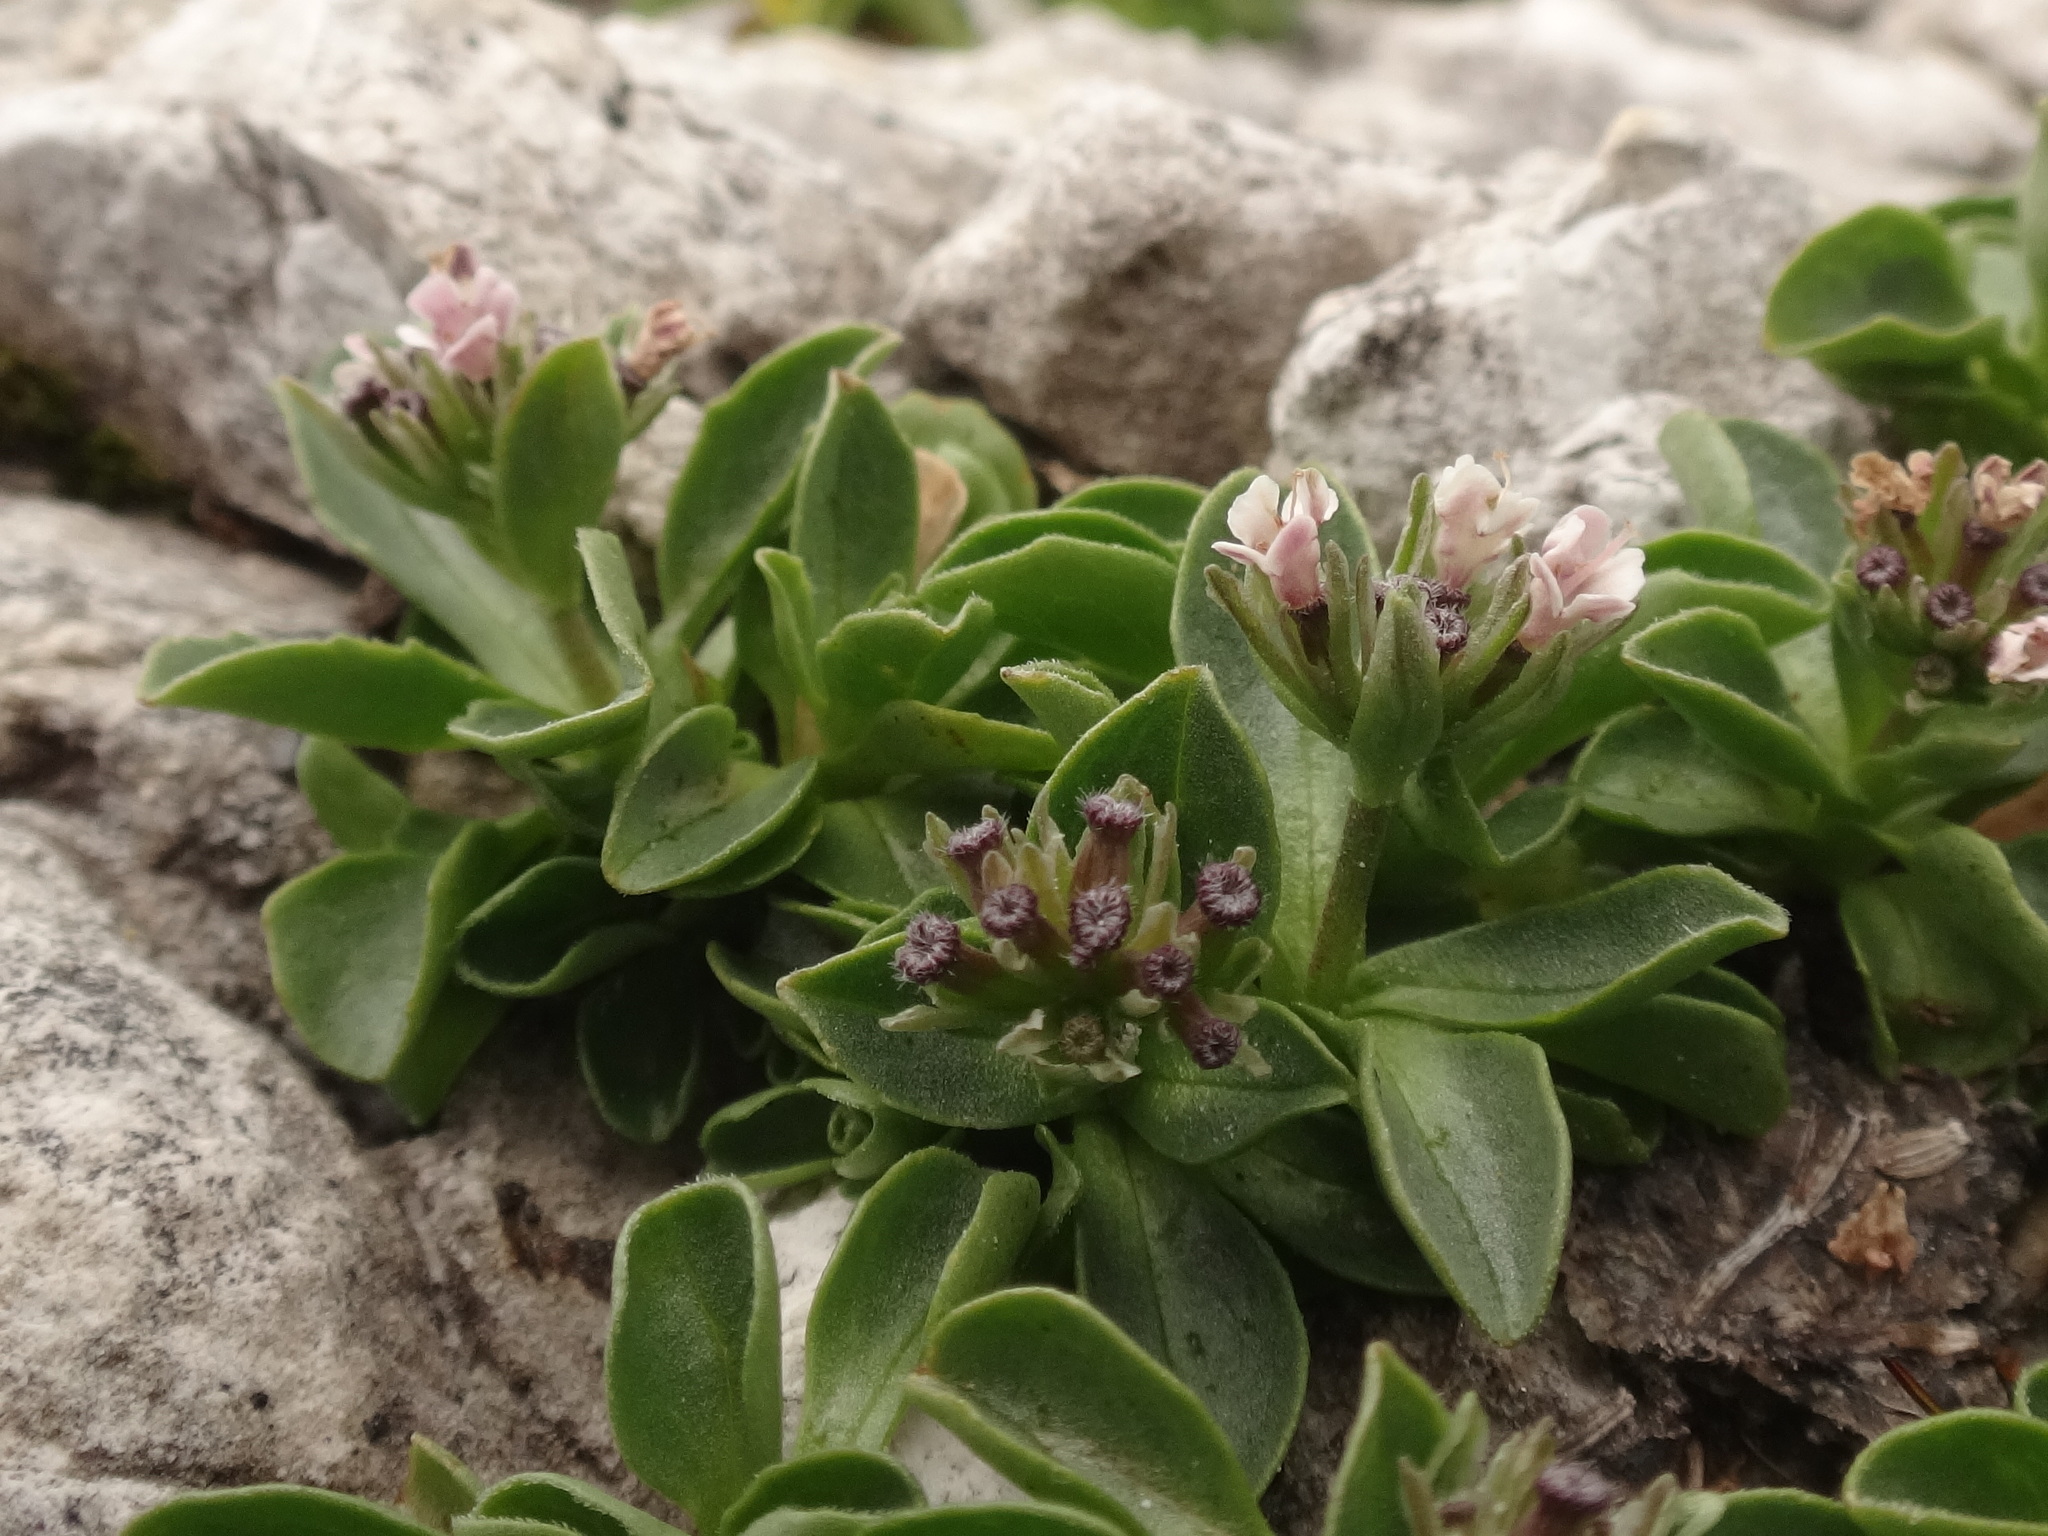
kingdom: Plantae
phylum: Tracheophyta
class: Magnoliopsida
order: Dipsacales
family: Caprifoliaceae
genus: Valeriana
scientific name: Valeriana supina
